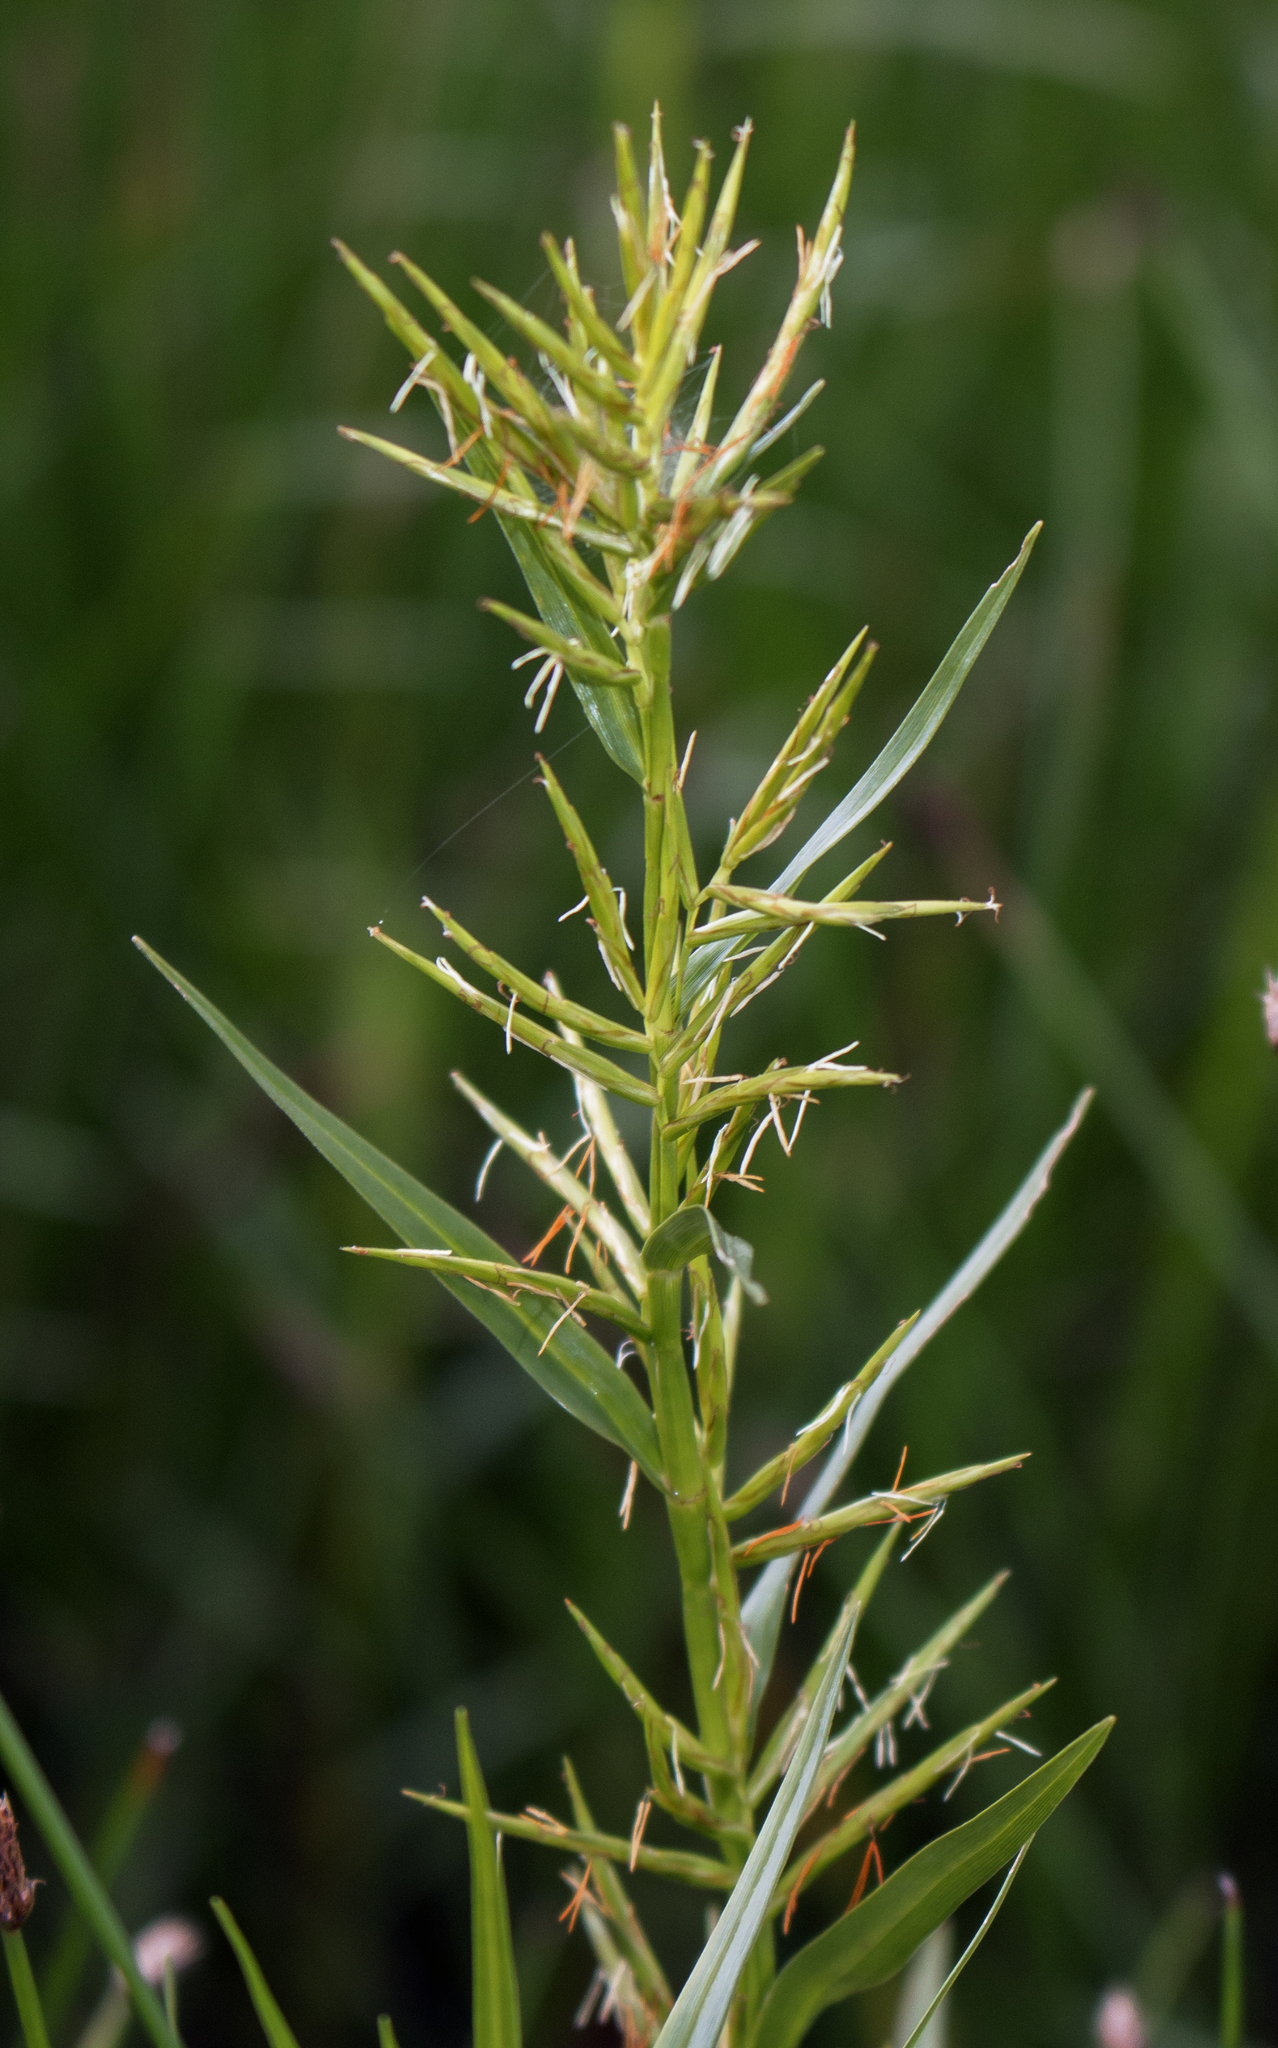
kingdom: Plantae
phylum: Tracheophyta
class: Liliopsida
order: Poales
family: Cyperaceae
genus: Dulichium
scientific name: Dulichium arundinaceum
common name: Three-way sedge
